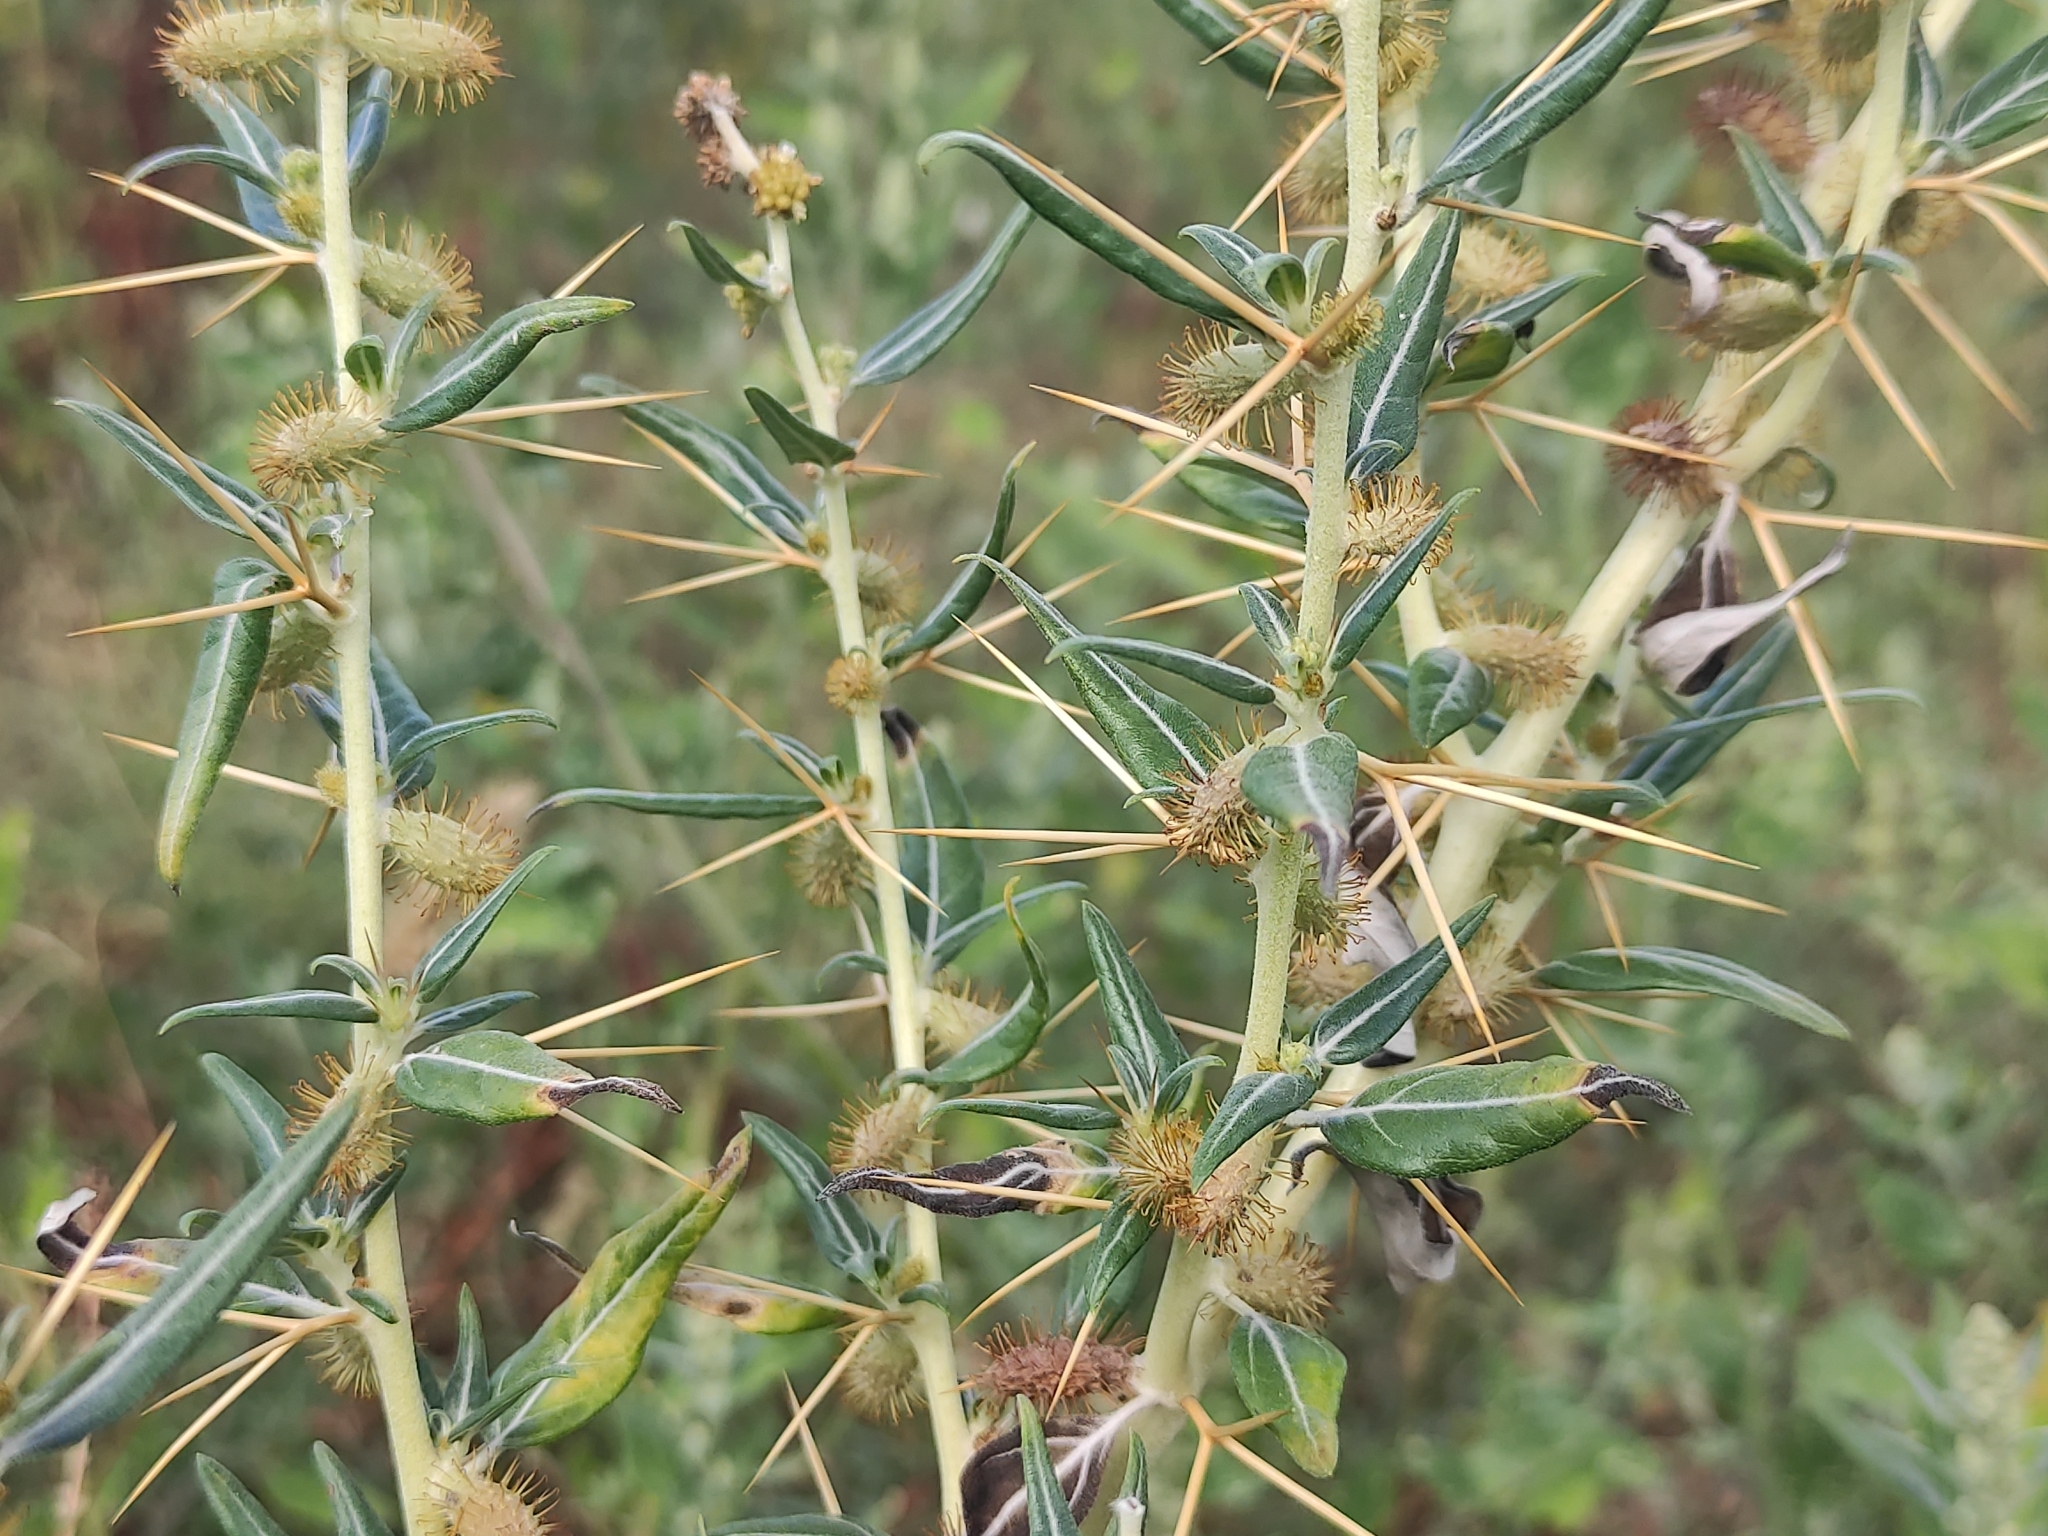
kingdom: Plantae
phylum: Tracheophyta
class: Magnoliopsida
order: Asterales
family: Asteraceae
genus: Xanthium
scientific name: Xanthium spinosum
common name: Spiny cocklebur
